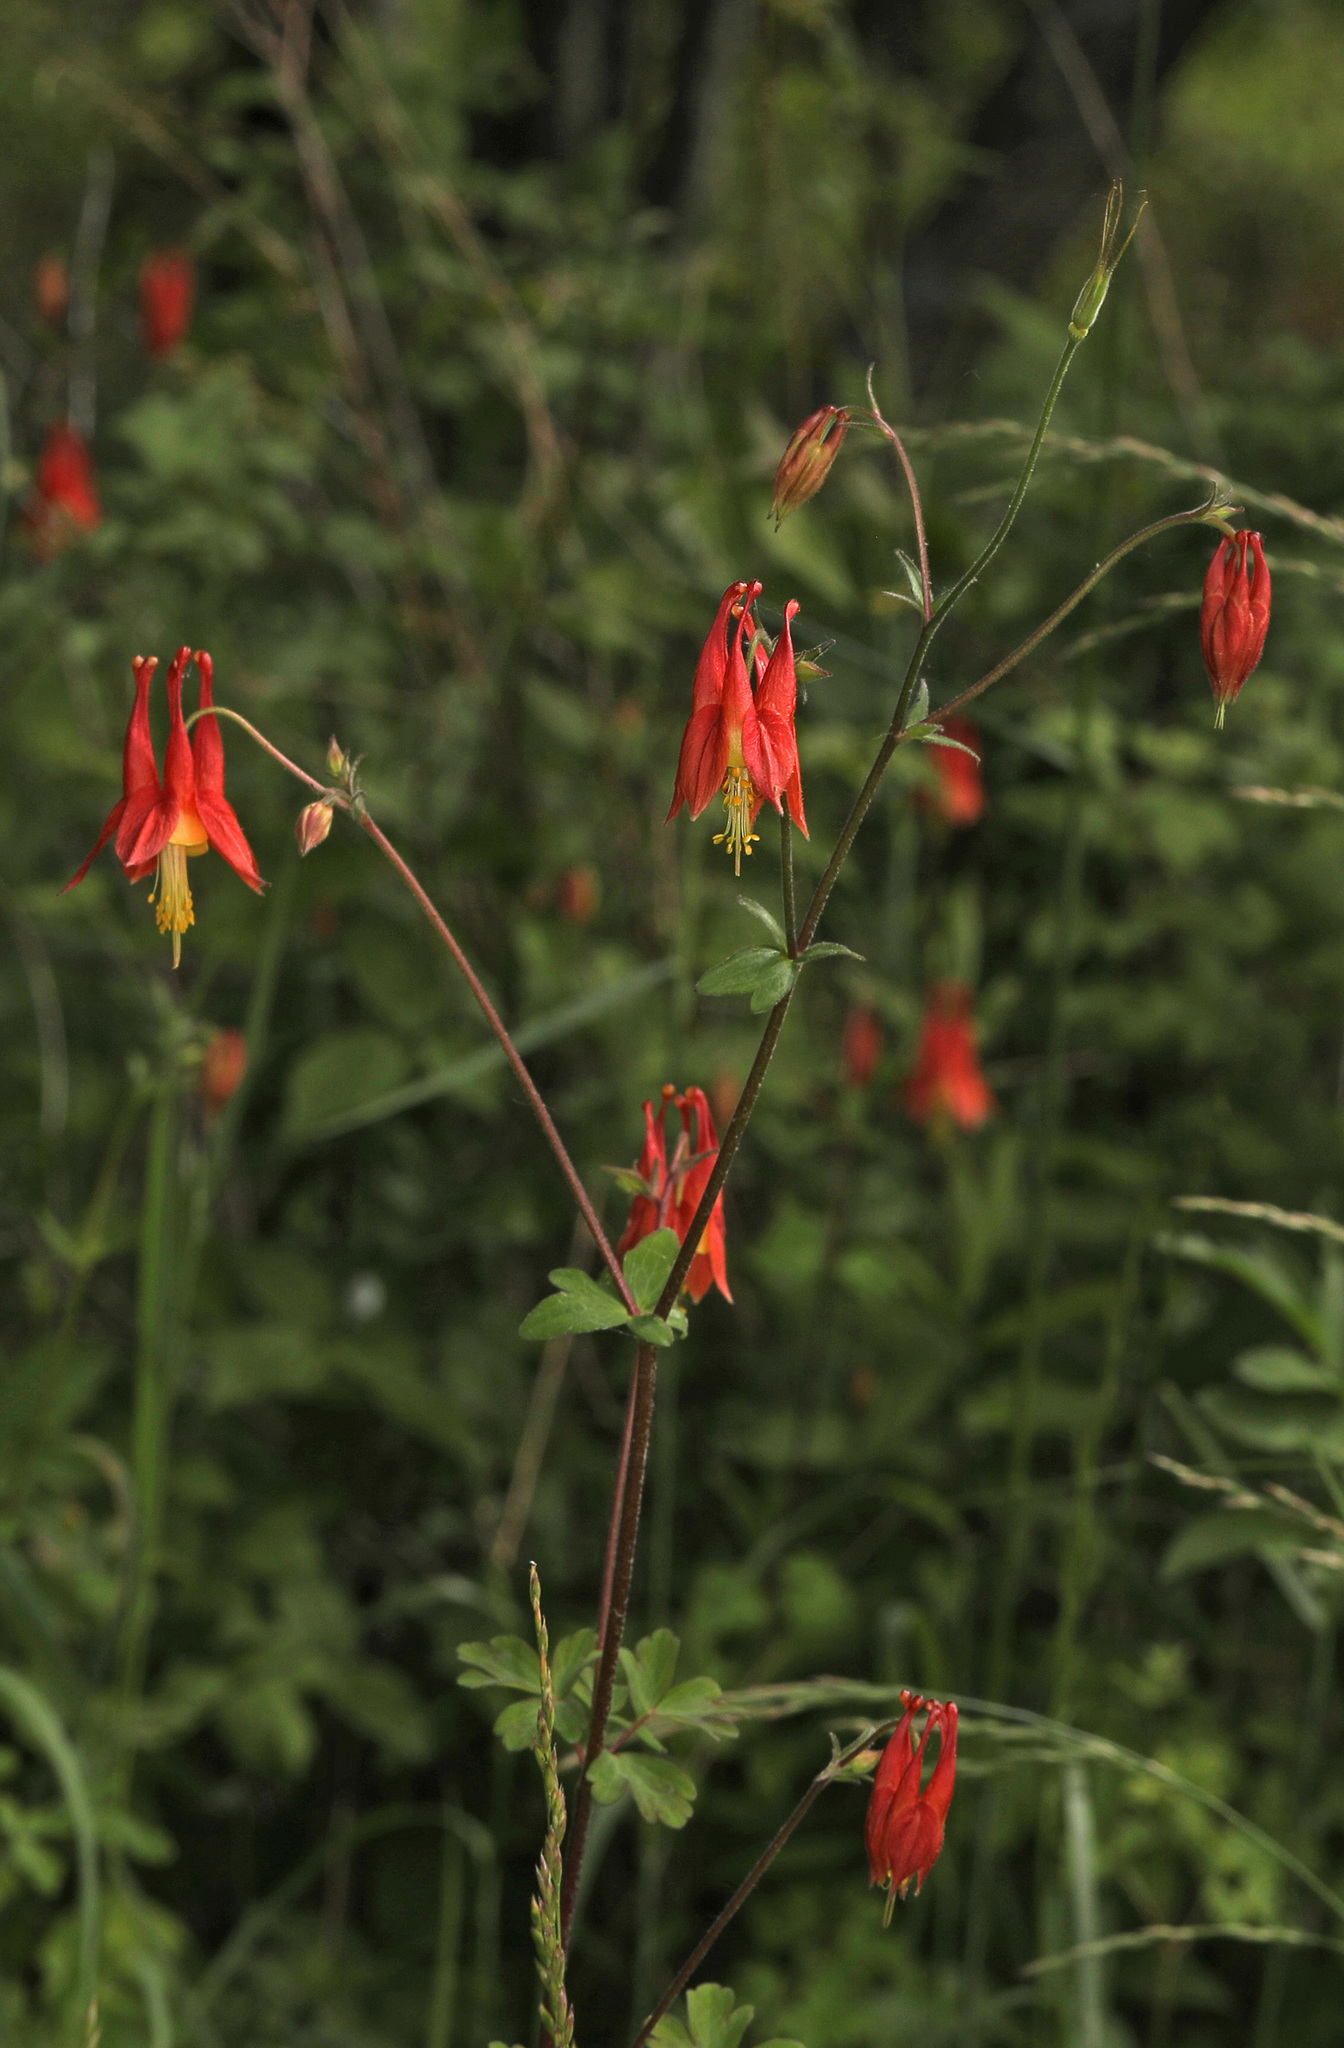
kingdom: Plantae
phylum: Tracheophyta
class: Magnoliopsida
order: Ranunculales
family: Ranunculaceae
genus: Aquilegia
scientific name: Aquilegia canadensis
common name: American columbine
